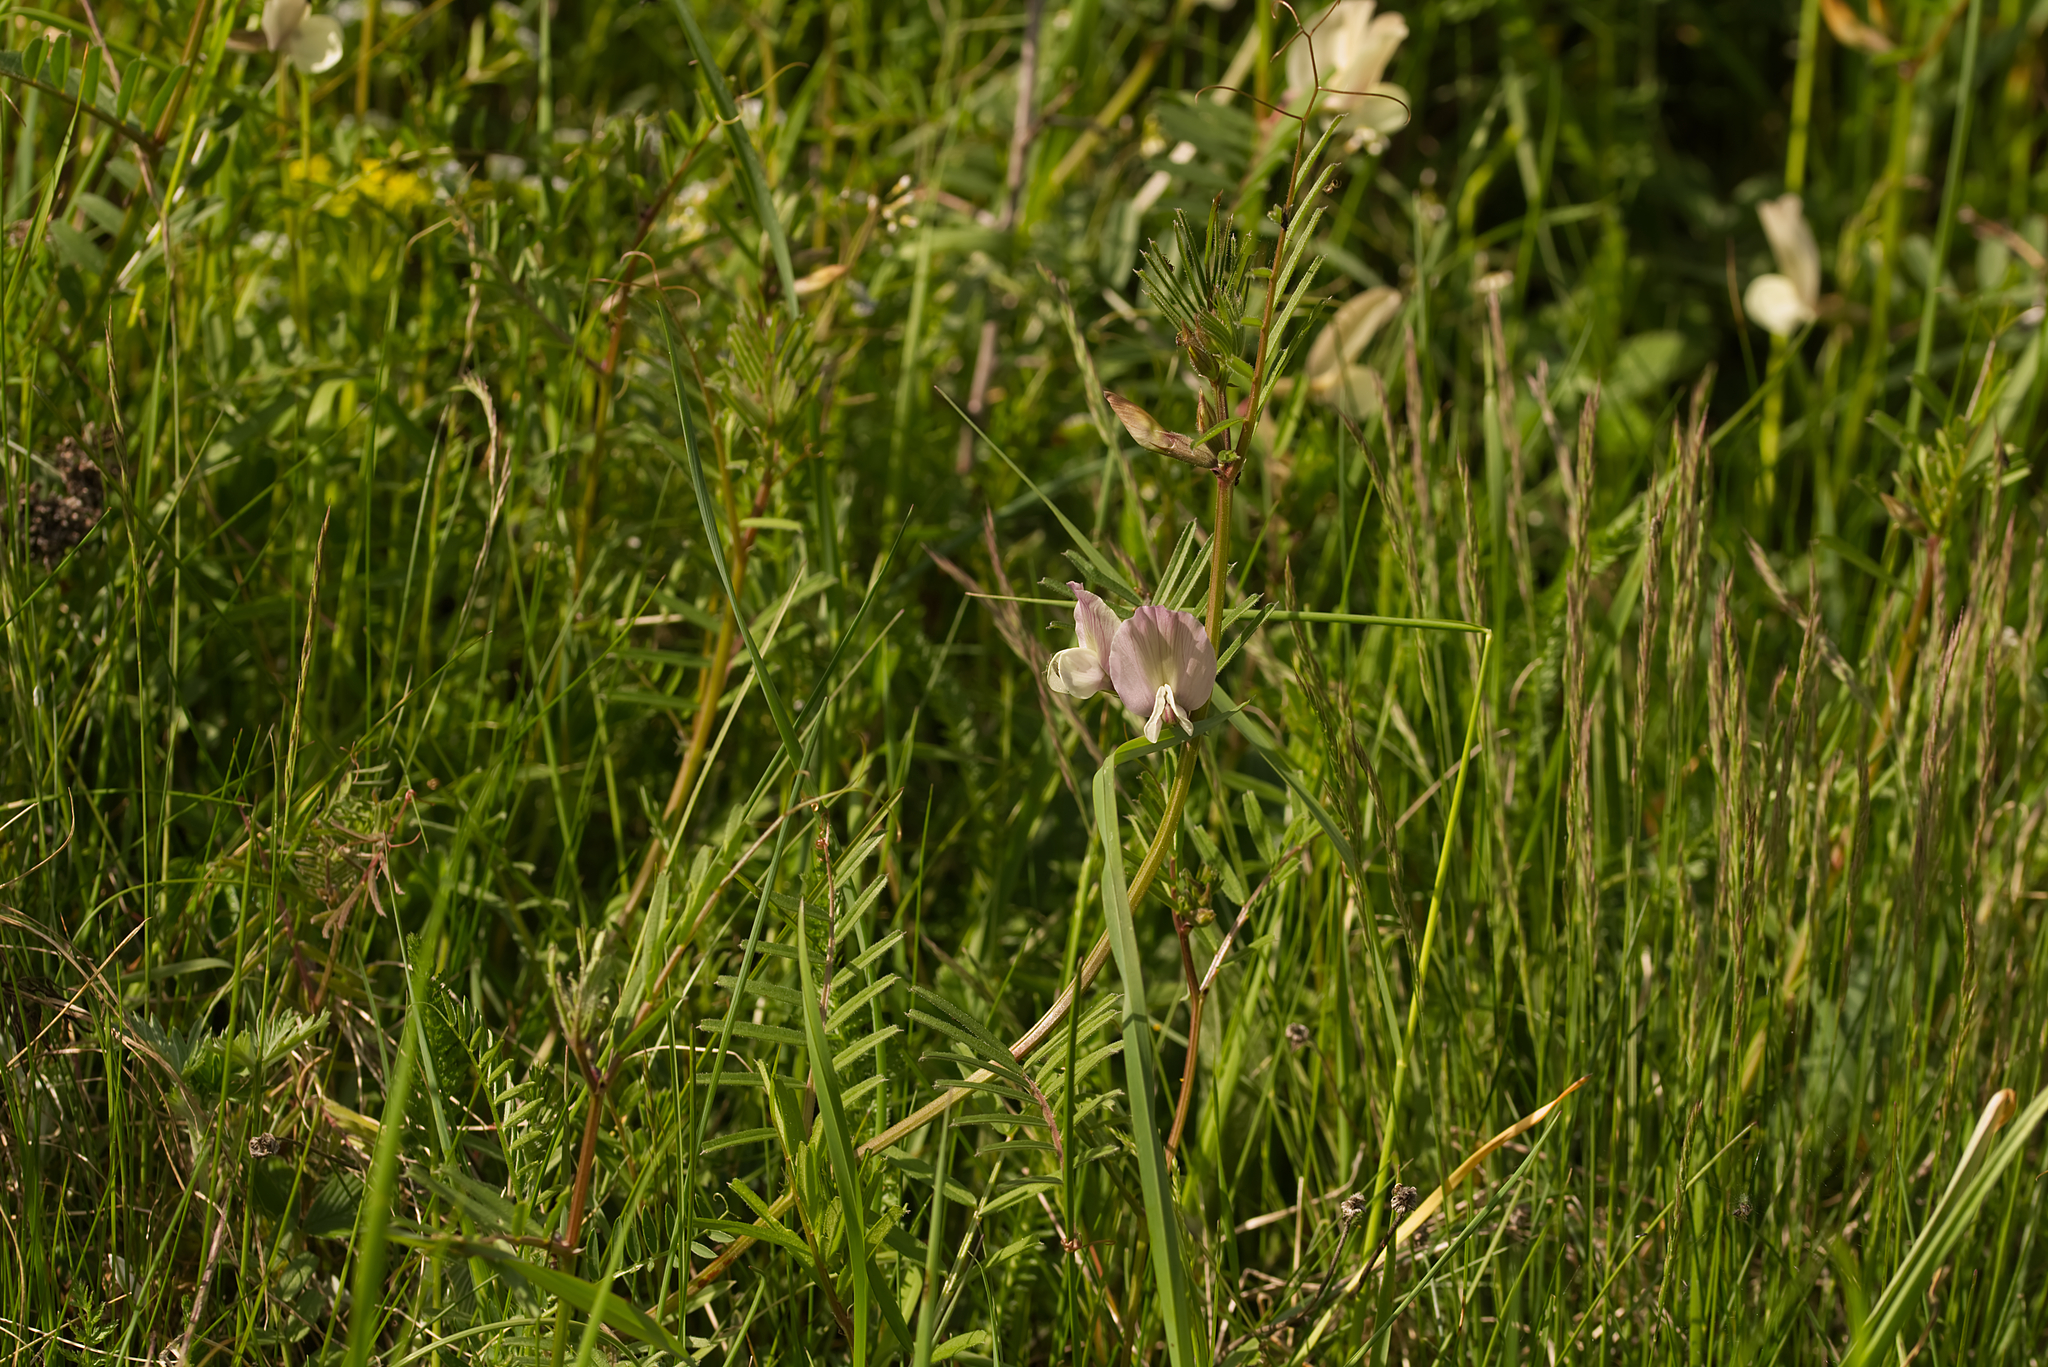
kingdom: Plantae
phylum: Tracheophyta
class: Magnoliopsida
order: Fabales
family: Fabaceae
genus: Vicia
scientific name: Vicia grandiflora
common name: Large yellow vetch
